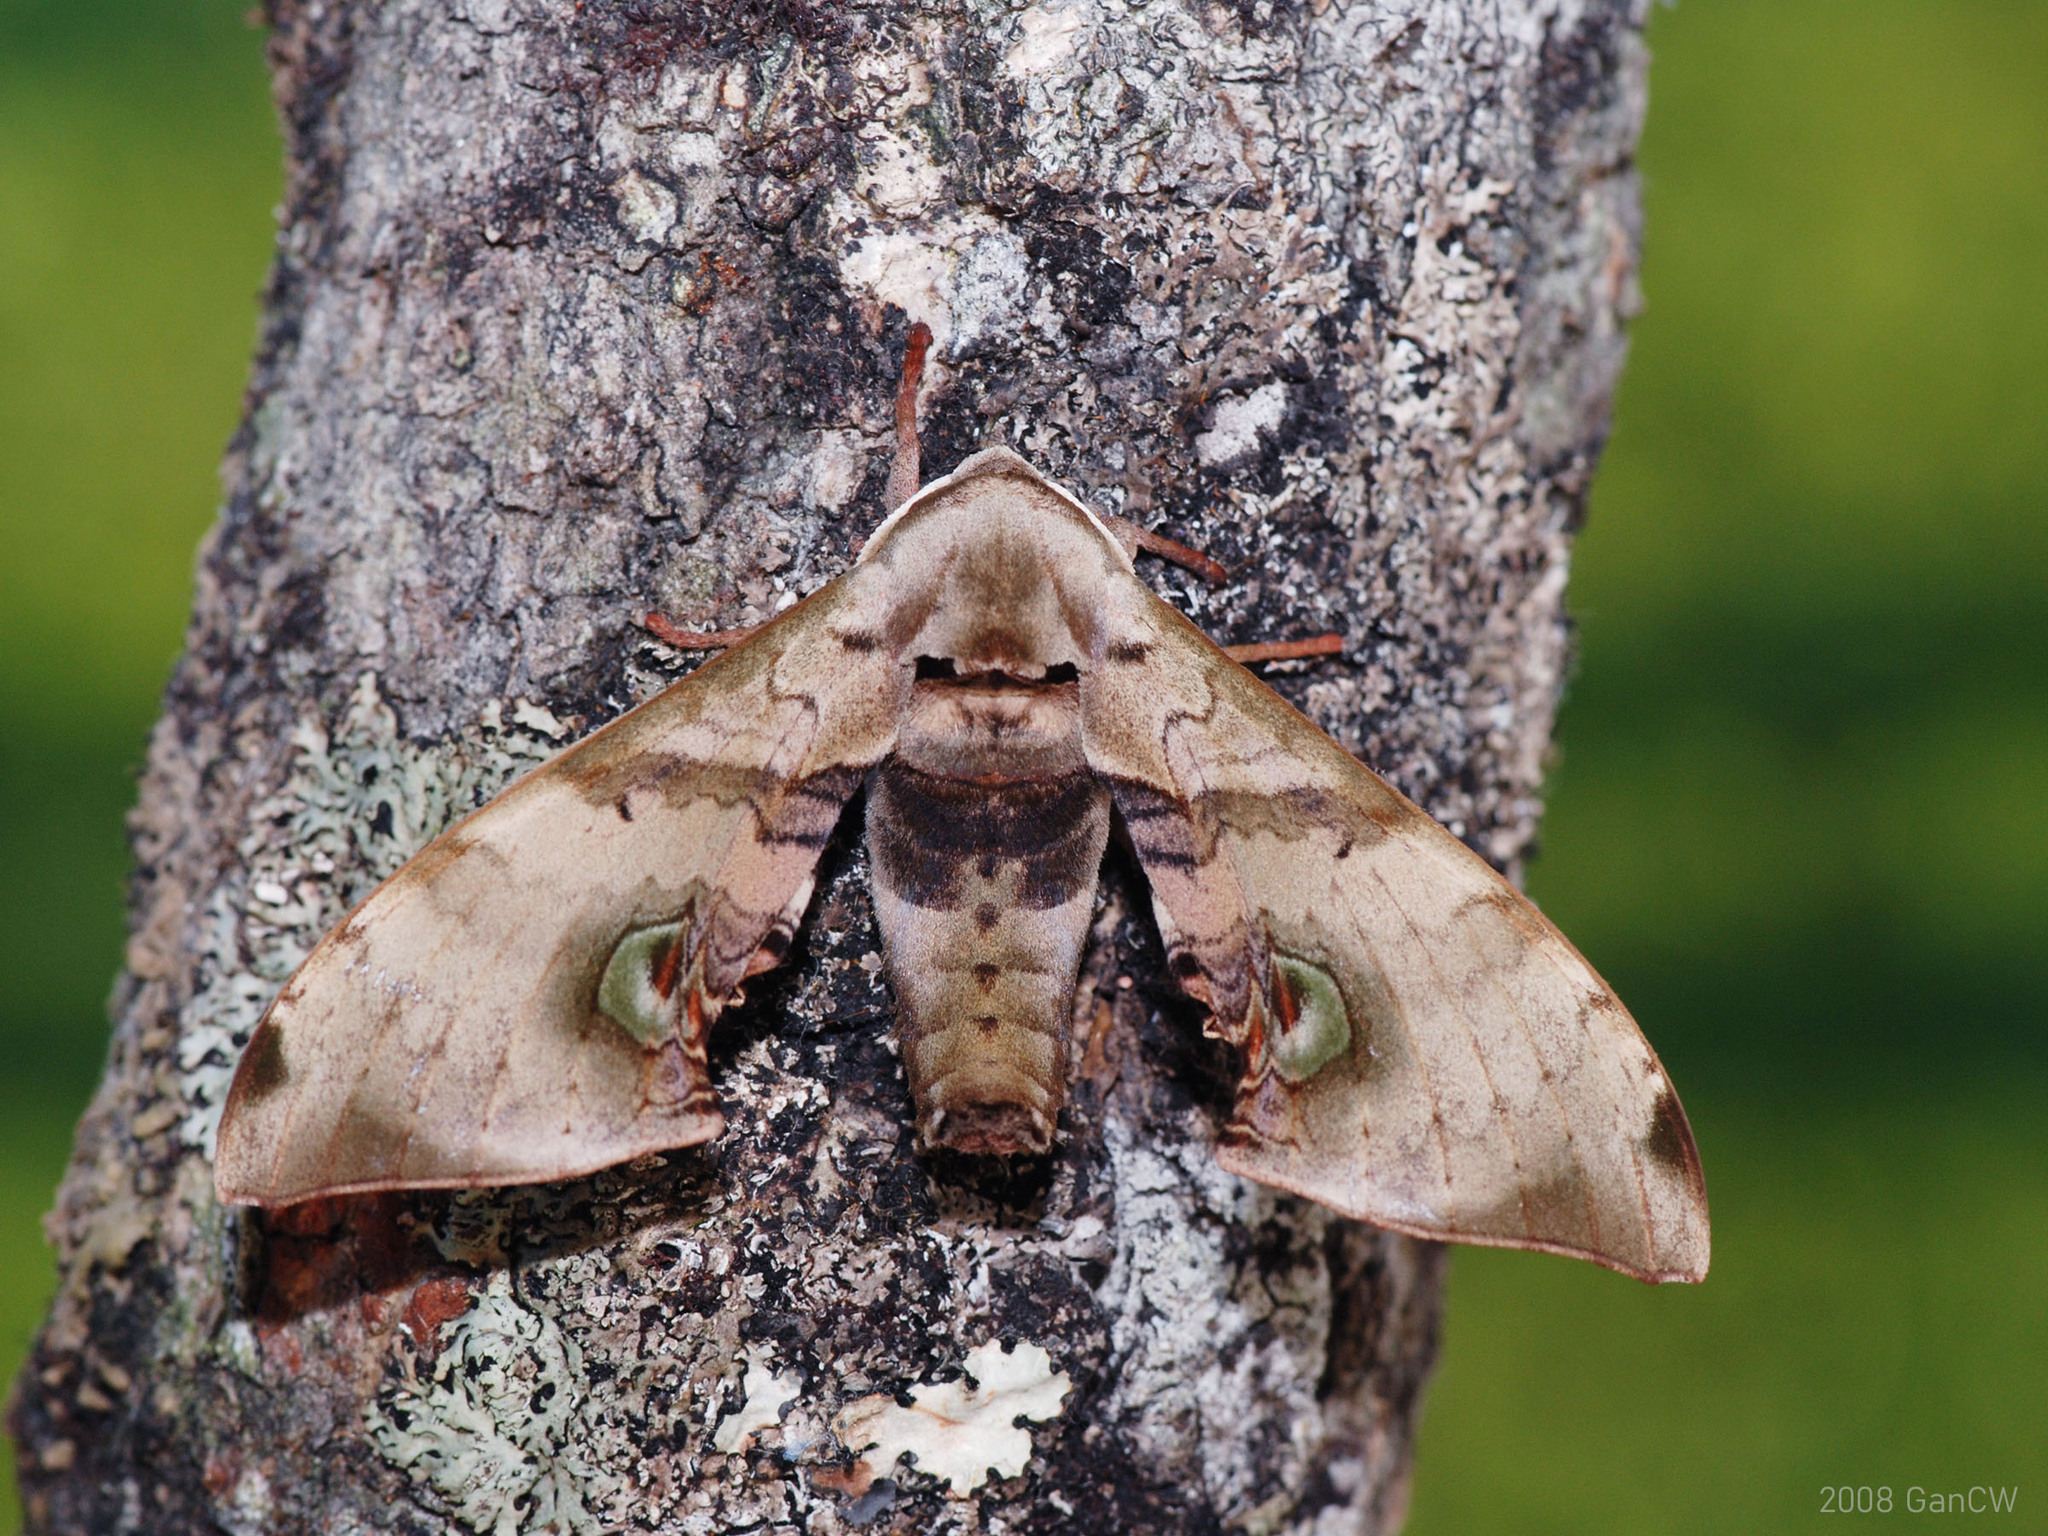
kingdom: Animalia
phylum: Arthropoda
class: Insecta
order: Lepidoptera
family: Sphingidae
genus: Daphnusa
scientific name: Daphnusa ocellaris
